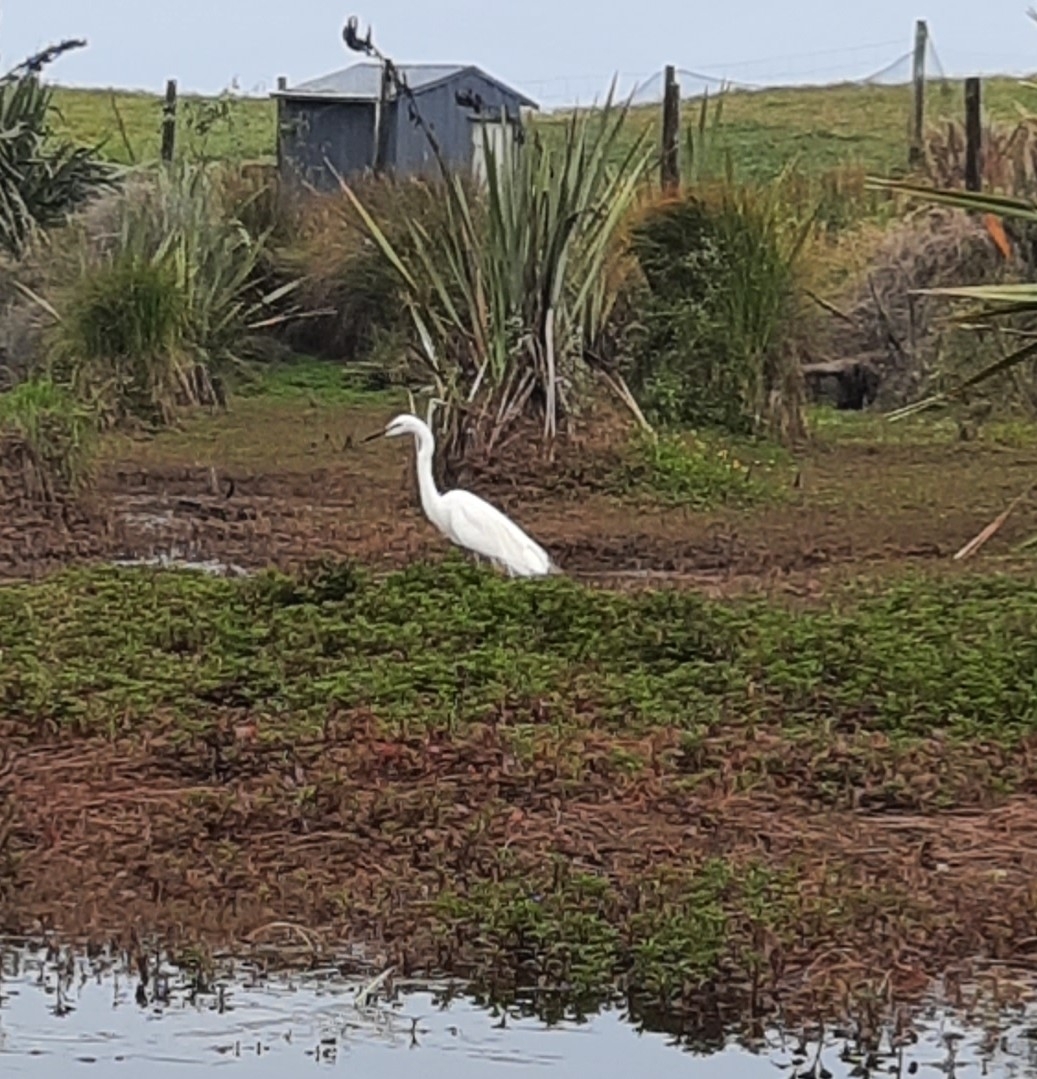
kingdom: Animalia
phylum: Chordata
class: Aves
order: Pelecaniformes
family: Ardeidae
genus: Ardea
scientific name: Ardea modesta
